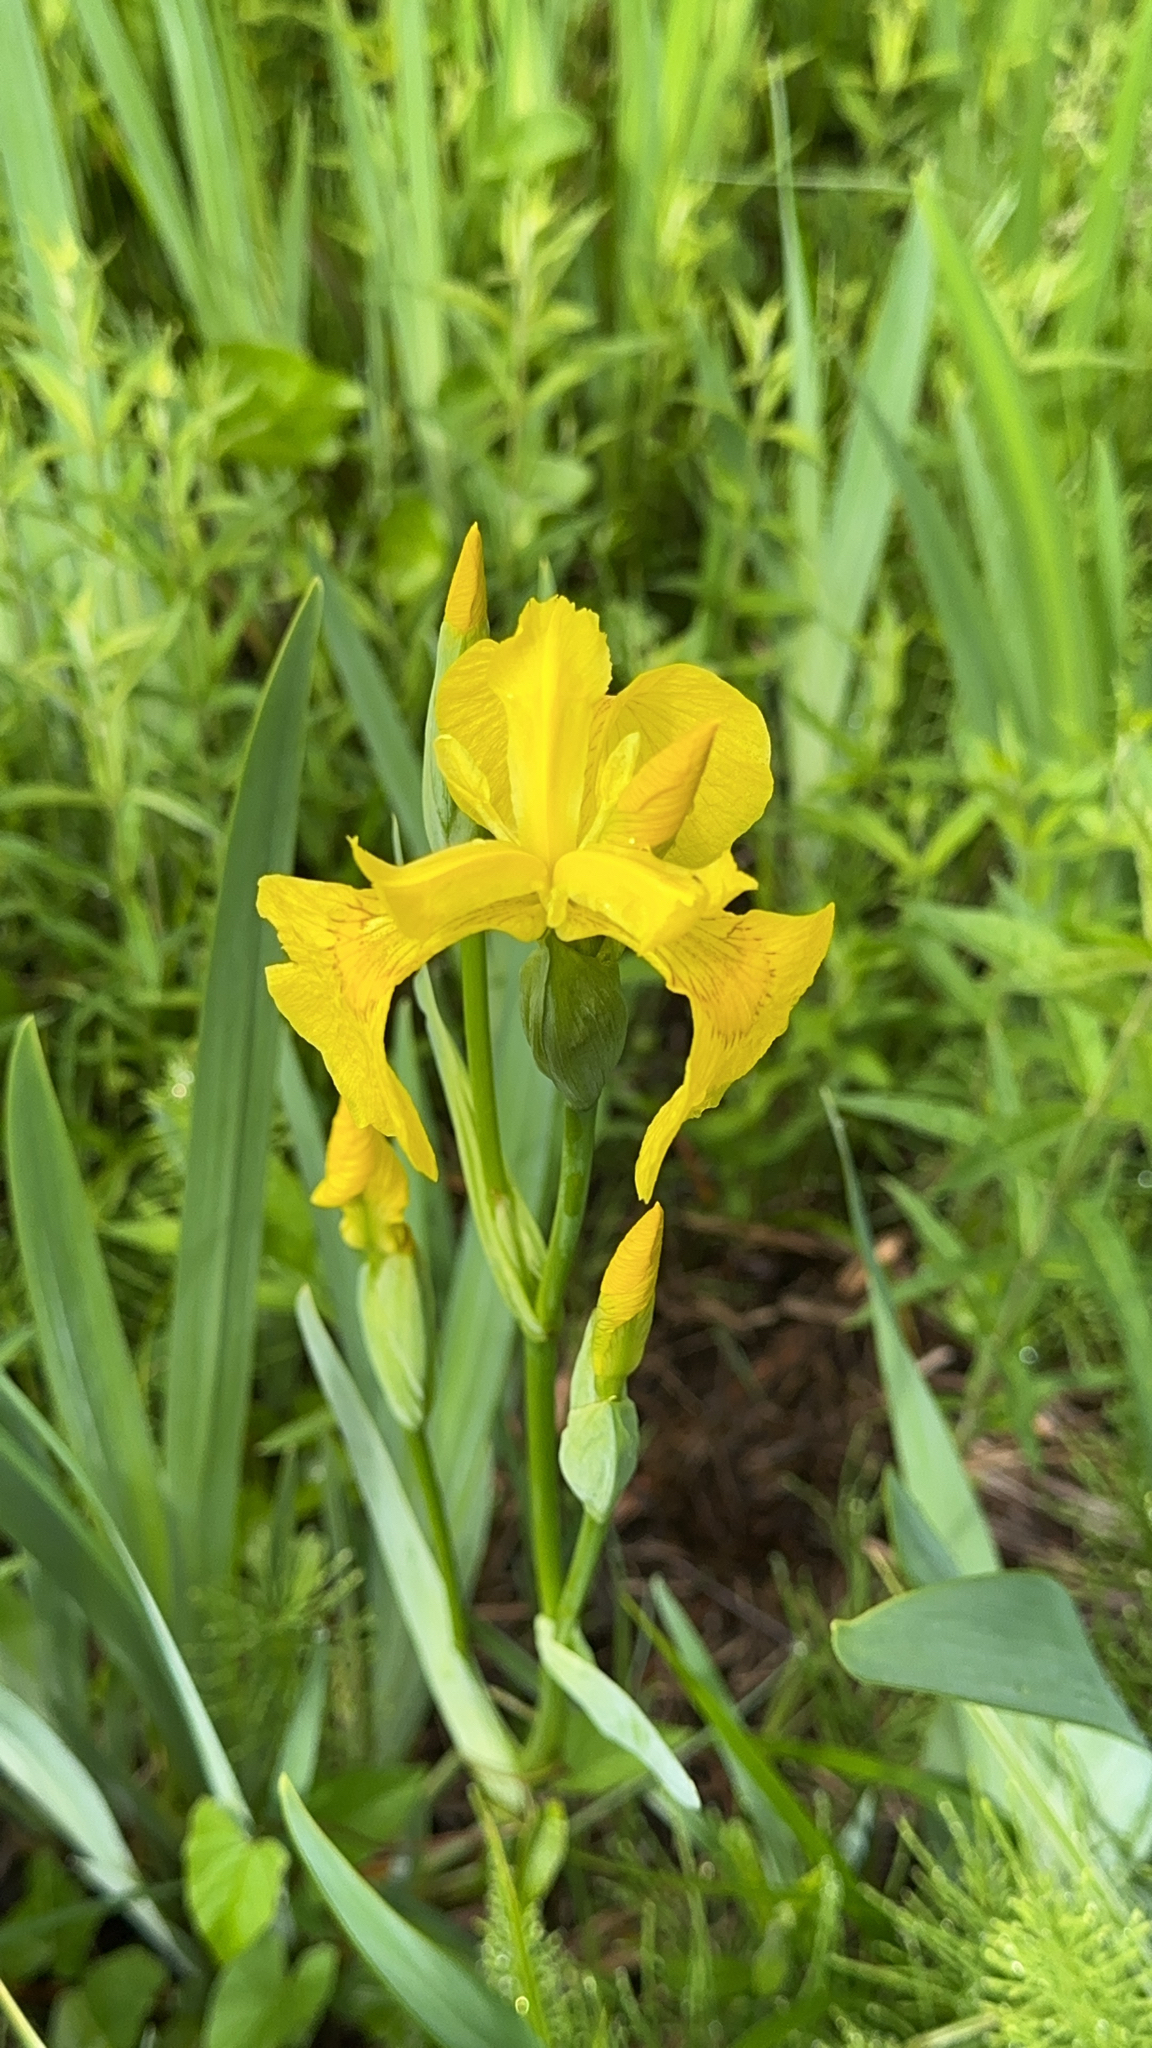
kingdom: Plantae
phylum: Tracheophyta
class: Liliopsida
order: Asparagales
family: Iridaceae
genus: Iris
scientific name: Iris pseudacorus
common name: Yellow flag
